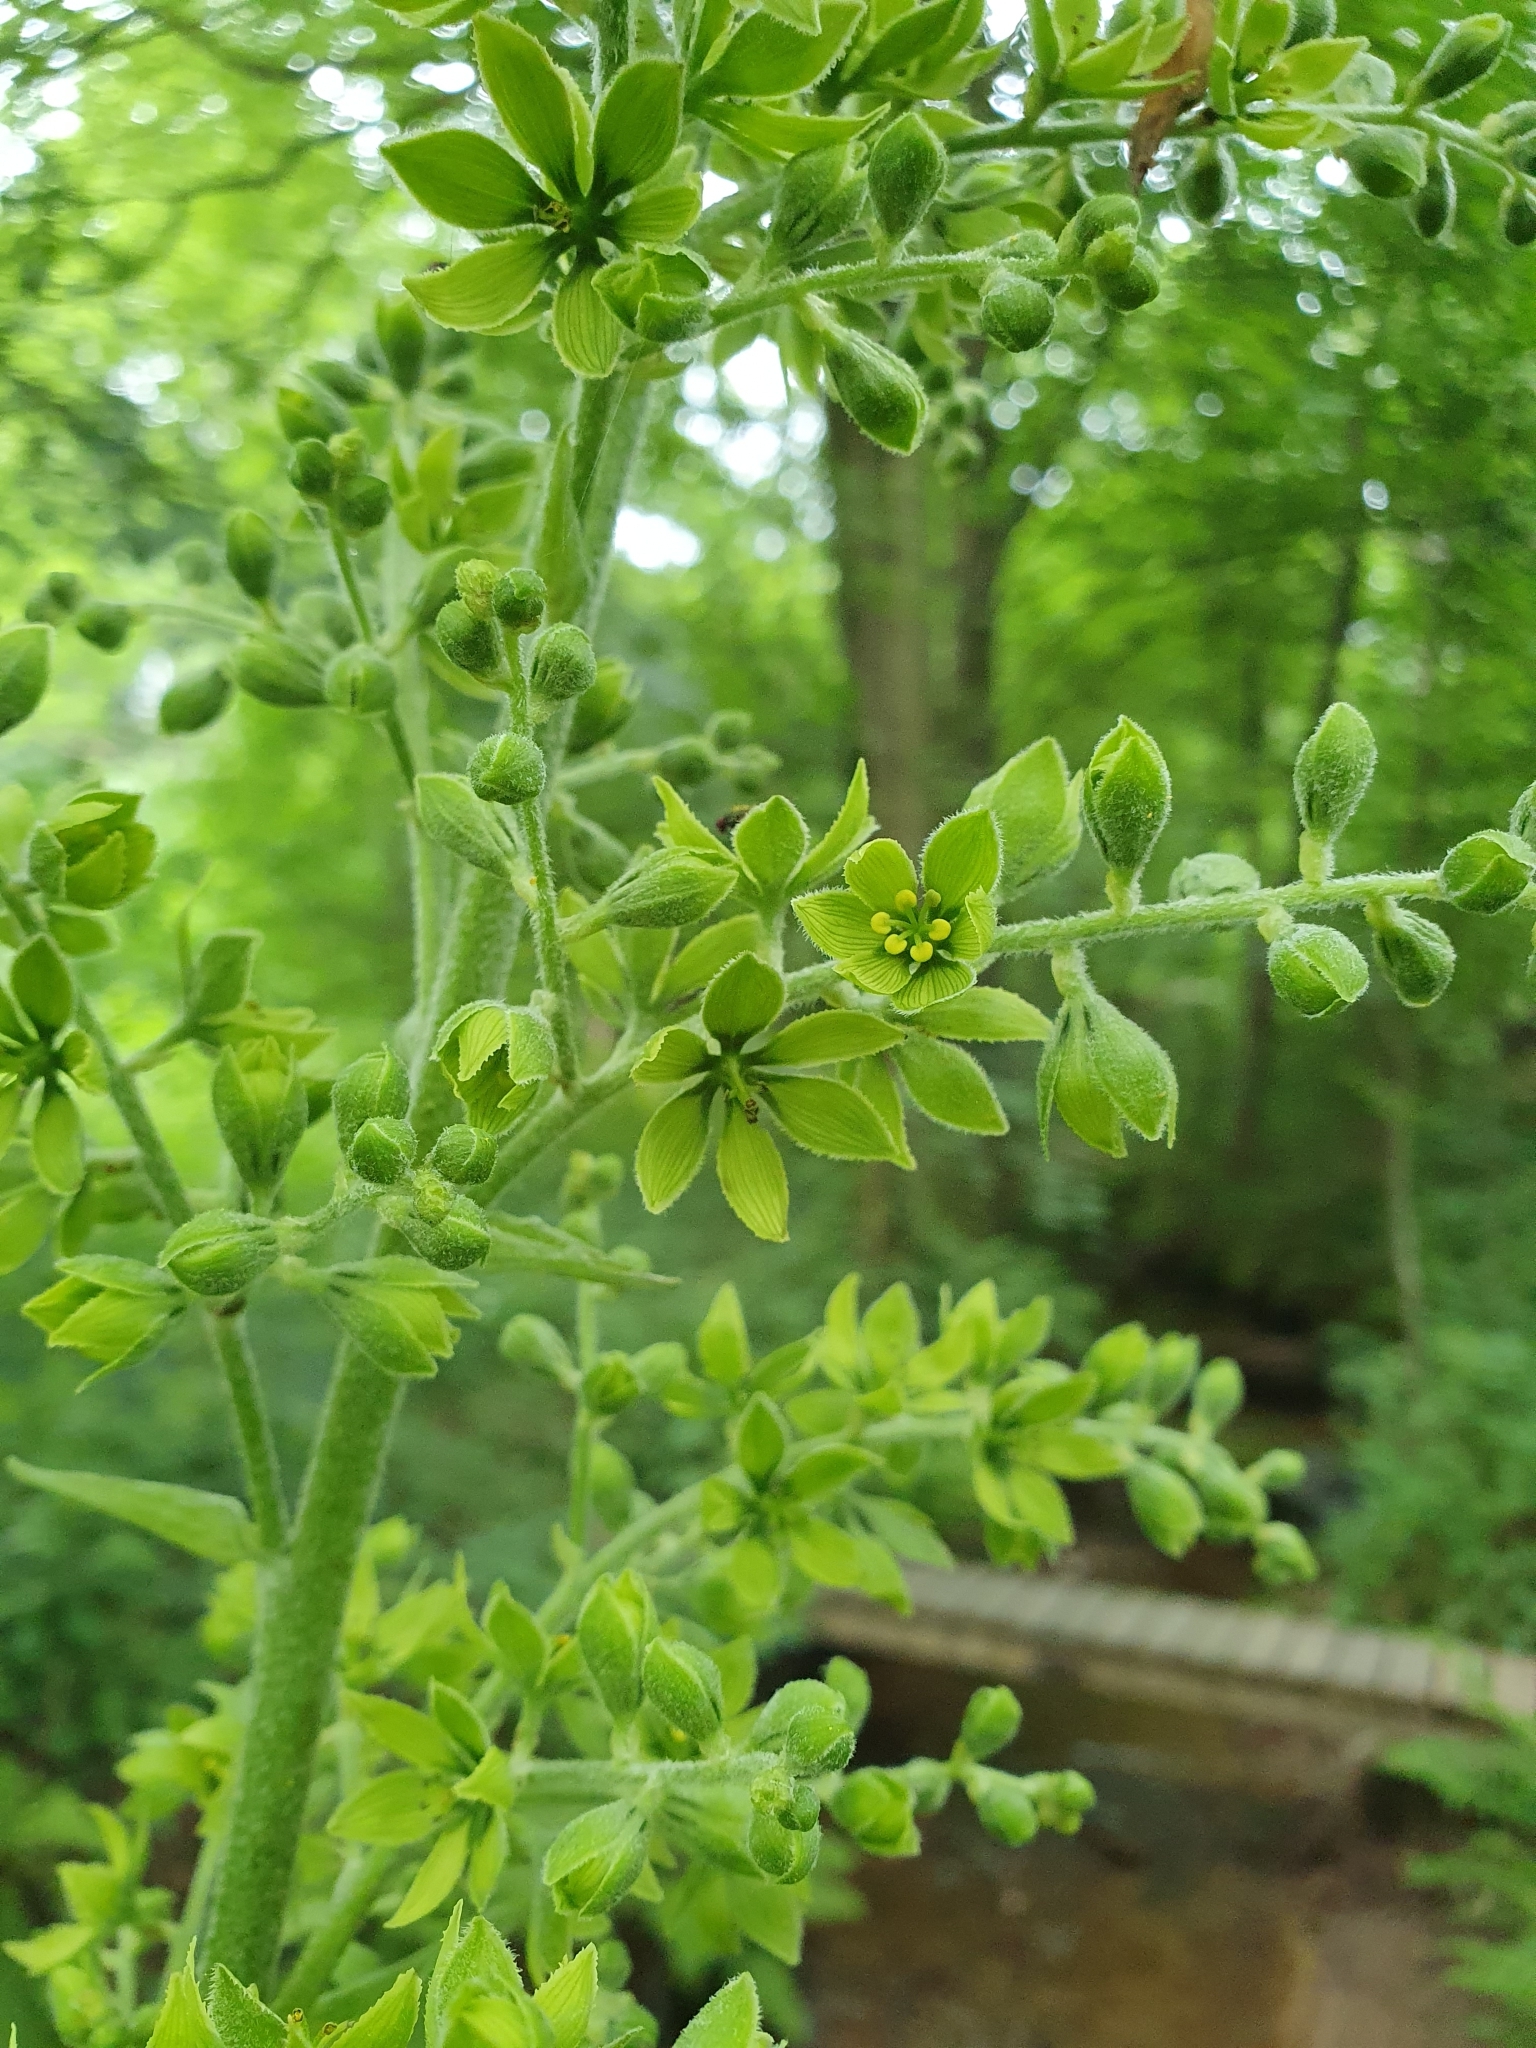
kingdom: Plantae
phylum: Tracheophyta
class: Liliopsida
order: Liliales
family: Melanthiaceae
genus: Veratrum
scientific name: Veratrum lobelianum
